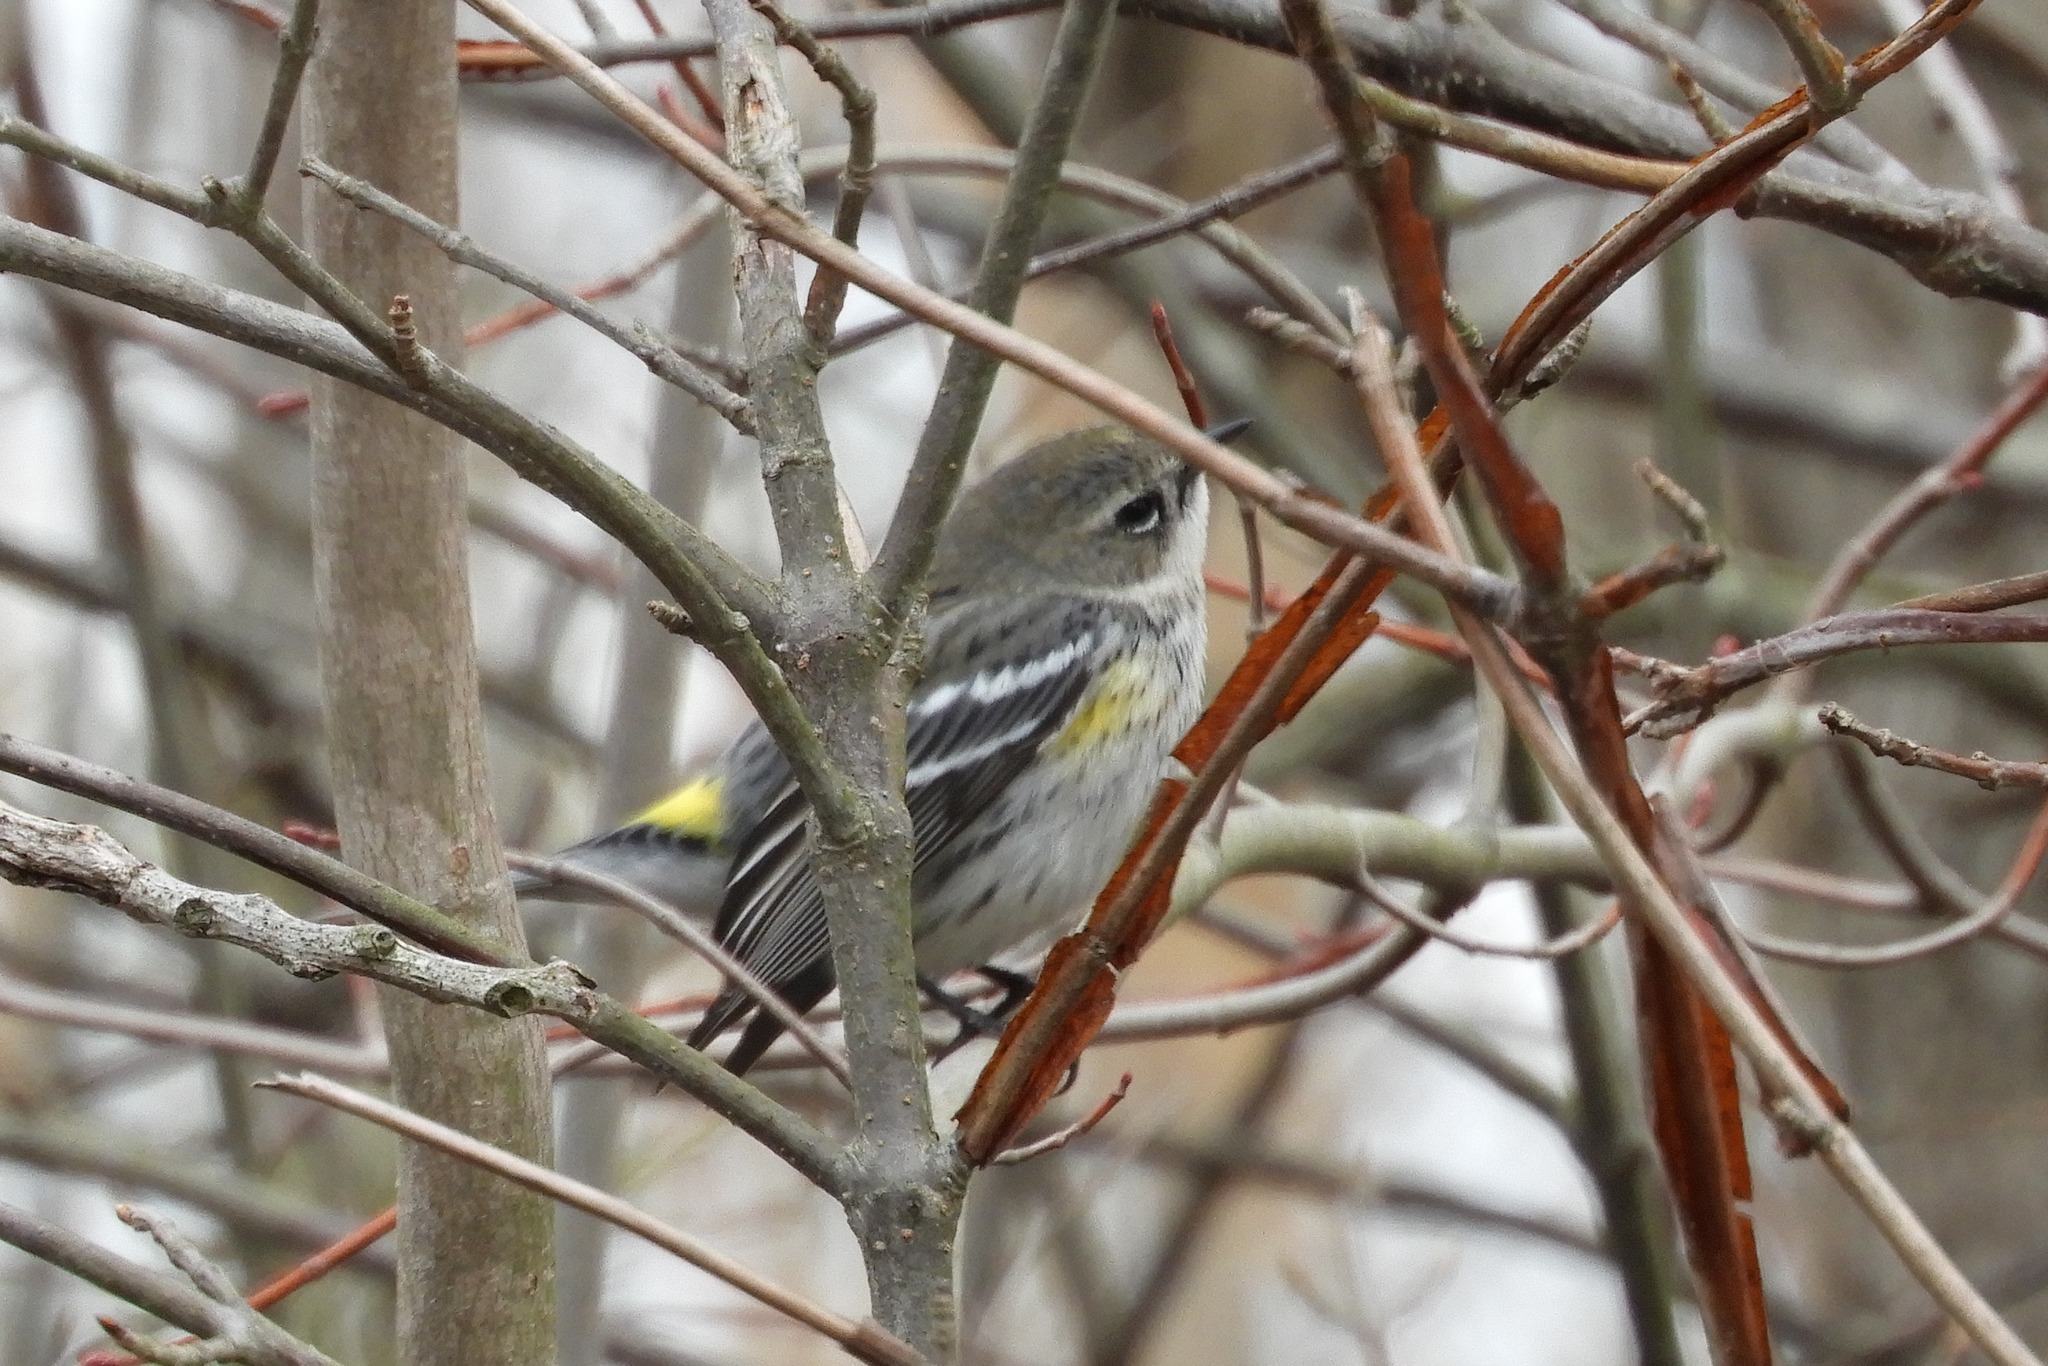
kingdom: Animalia
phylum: Chordata
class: Aves
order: Passeriformes
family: Parulidae
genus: Setophaga
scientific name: Setophaga coronata
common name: Myrtle warbler
